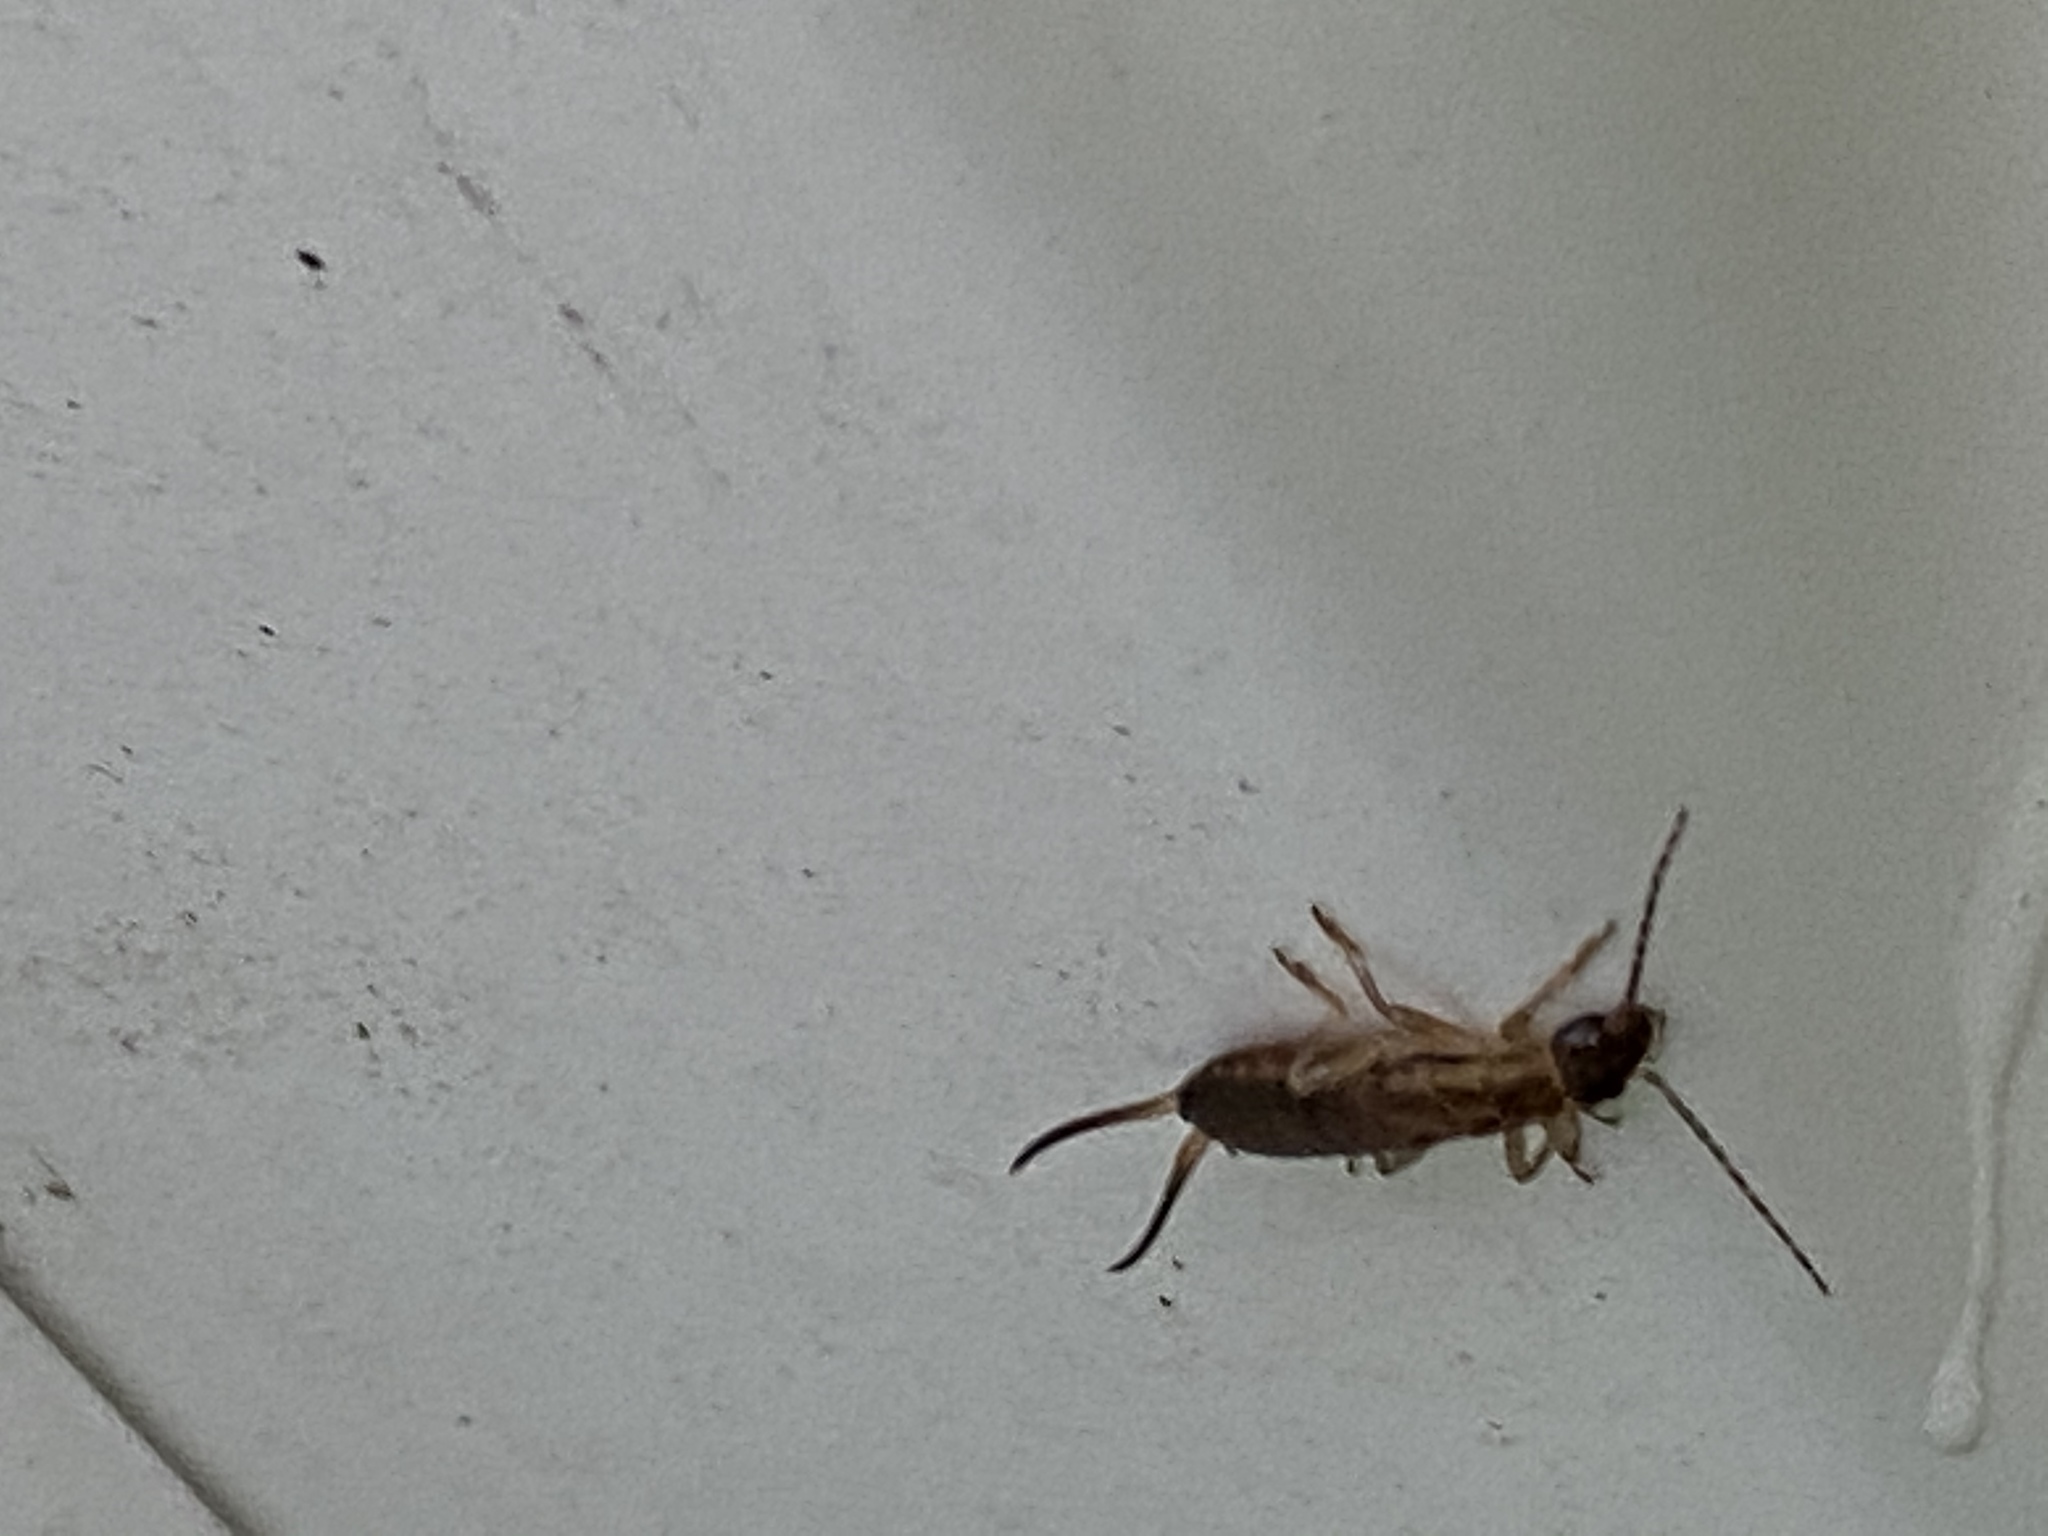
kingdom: Animalia
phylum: Arthropoda
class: Insecta
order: Dermaptera
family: Forficulidae
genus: Forficula
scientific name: Forficula
